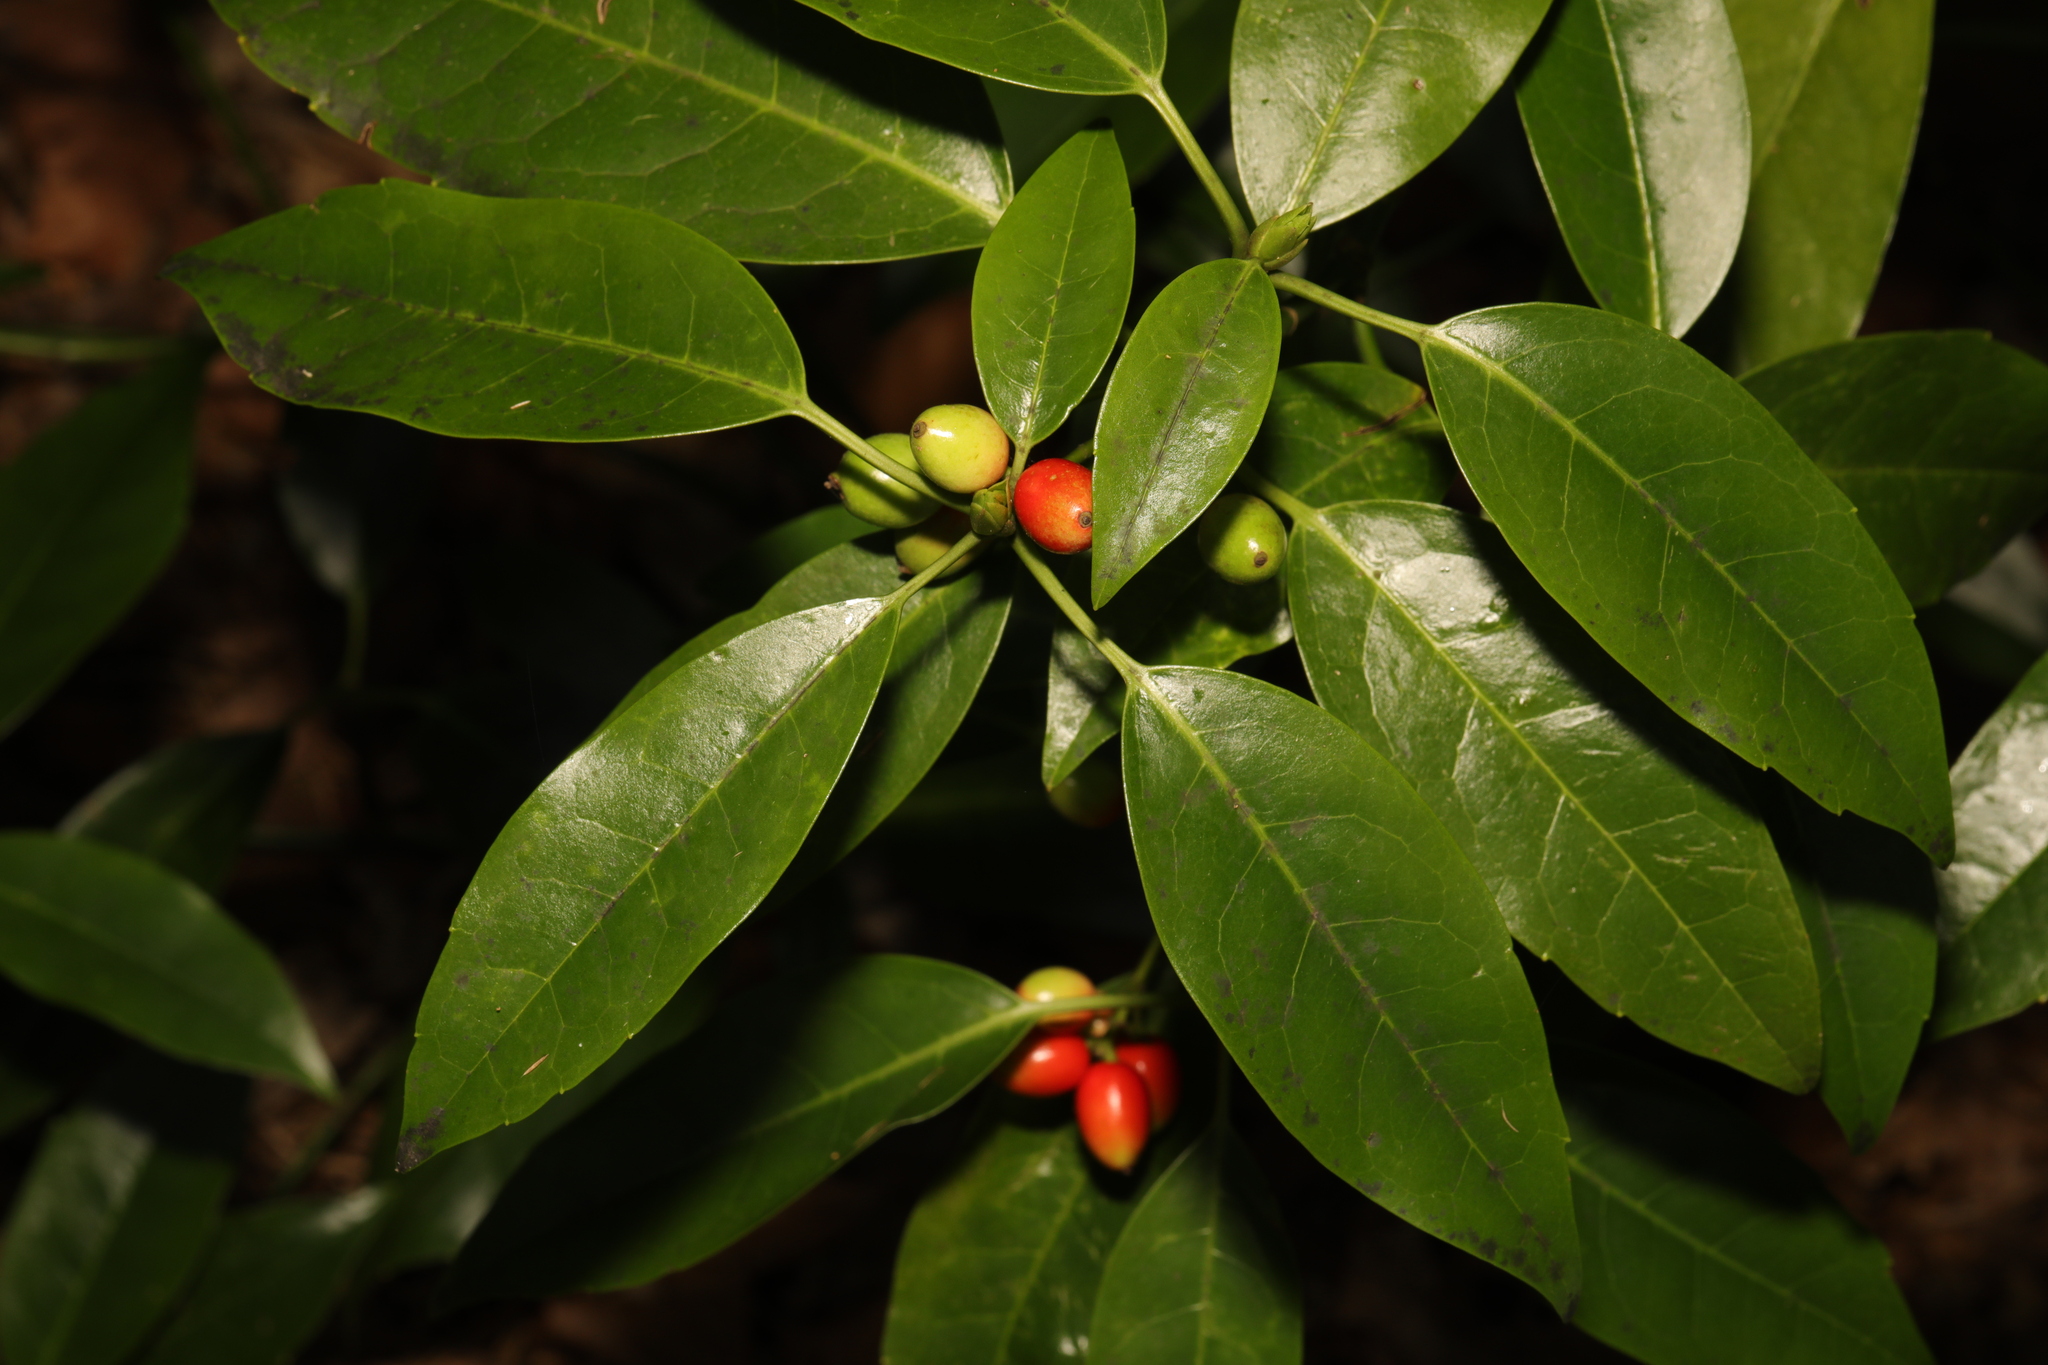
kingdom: Plantae
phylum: Tracheophyta
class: Magnoliopsida
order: Garryales
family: Garryaceae
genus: Aucuba
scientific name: Aucuba japonica
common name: Spotted-laurel
